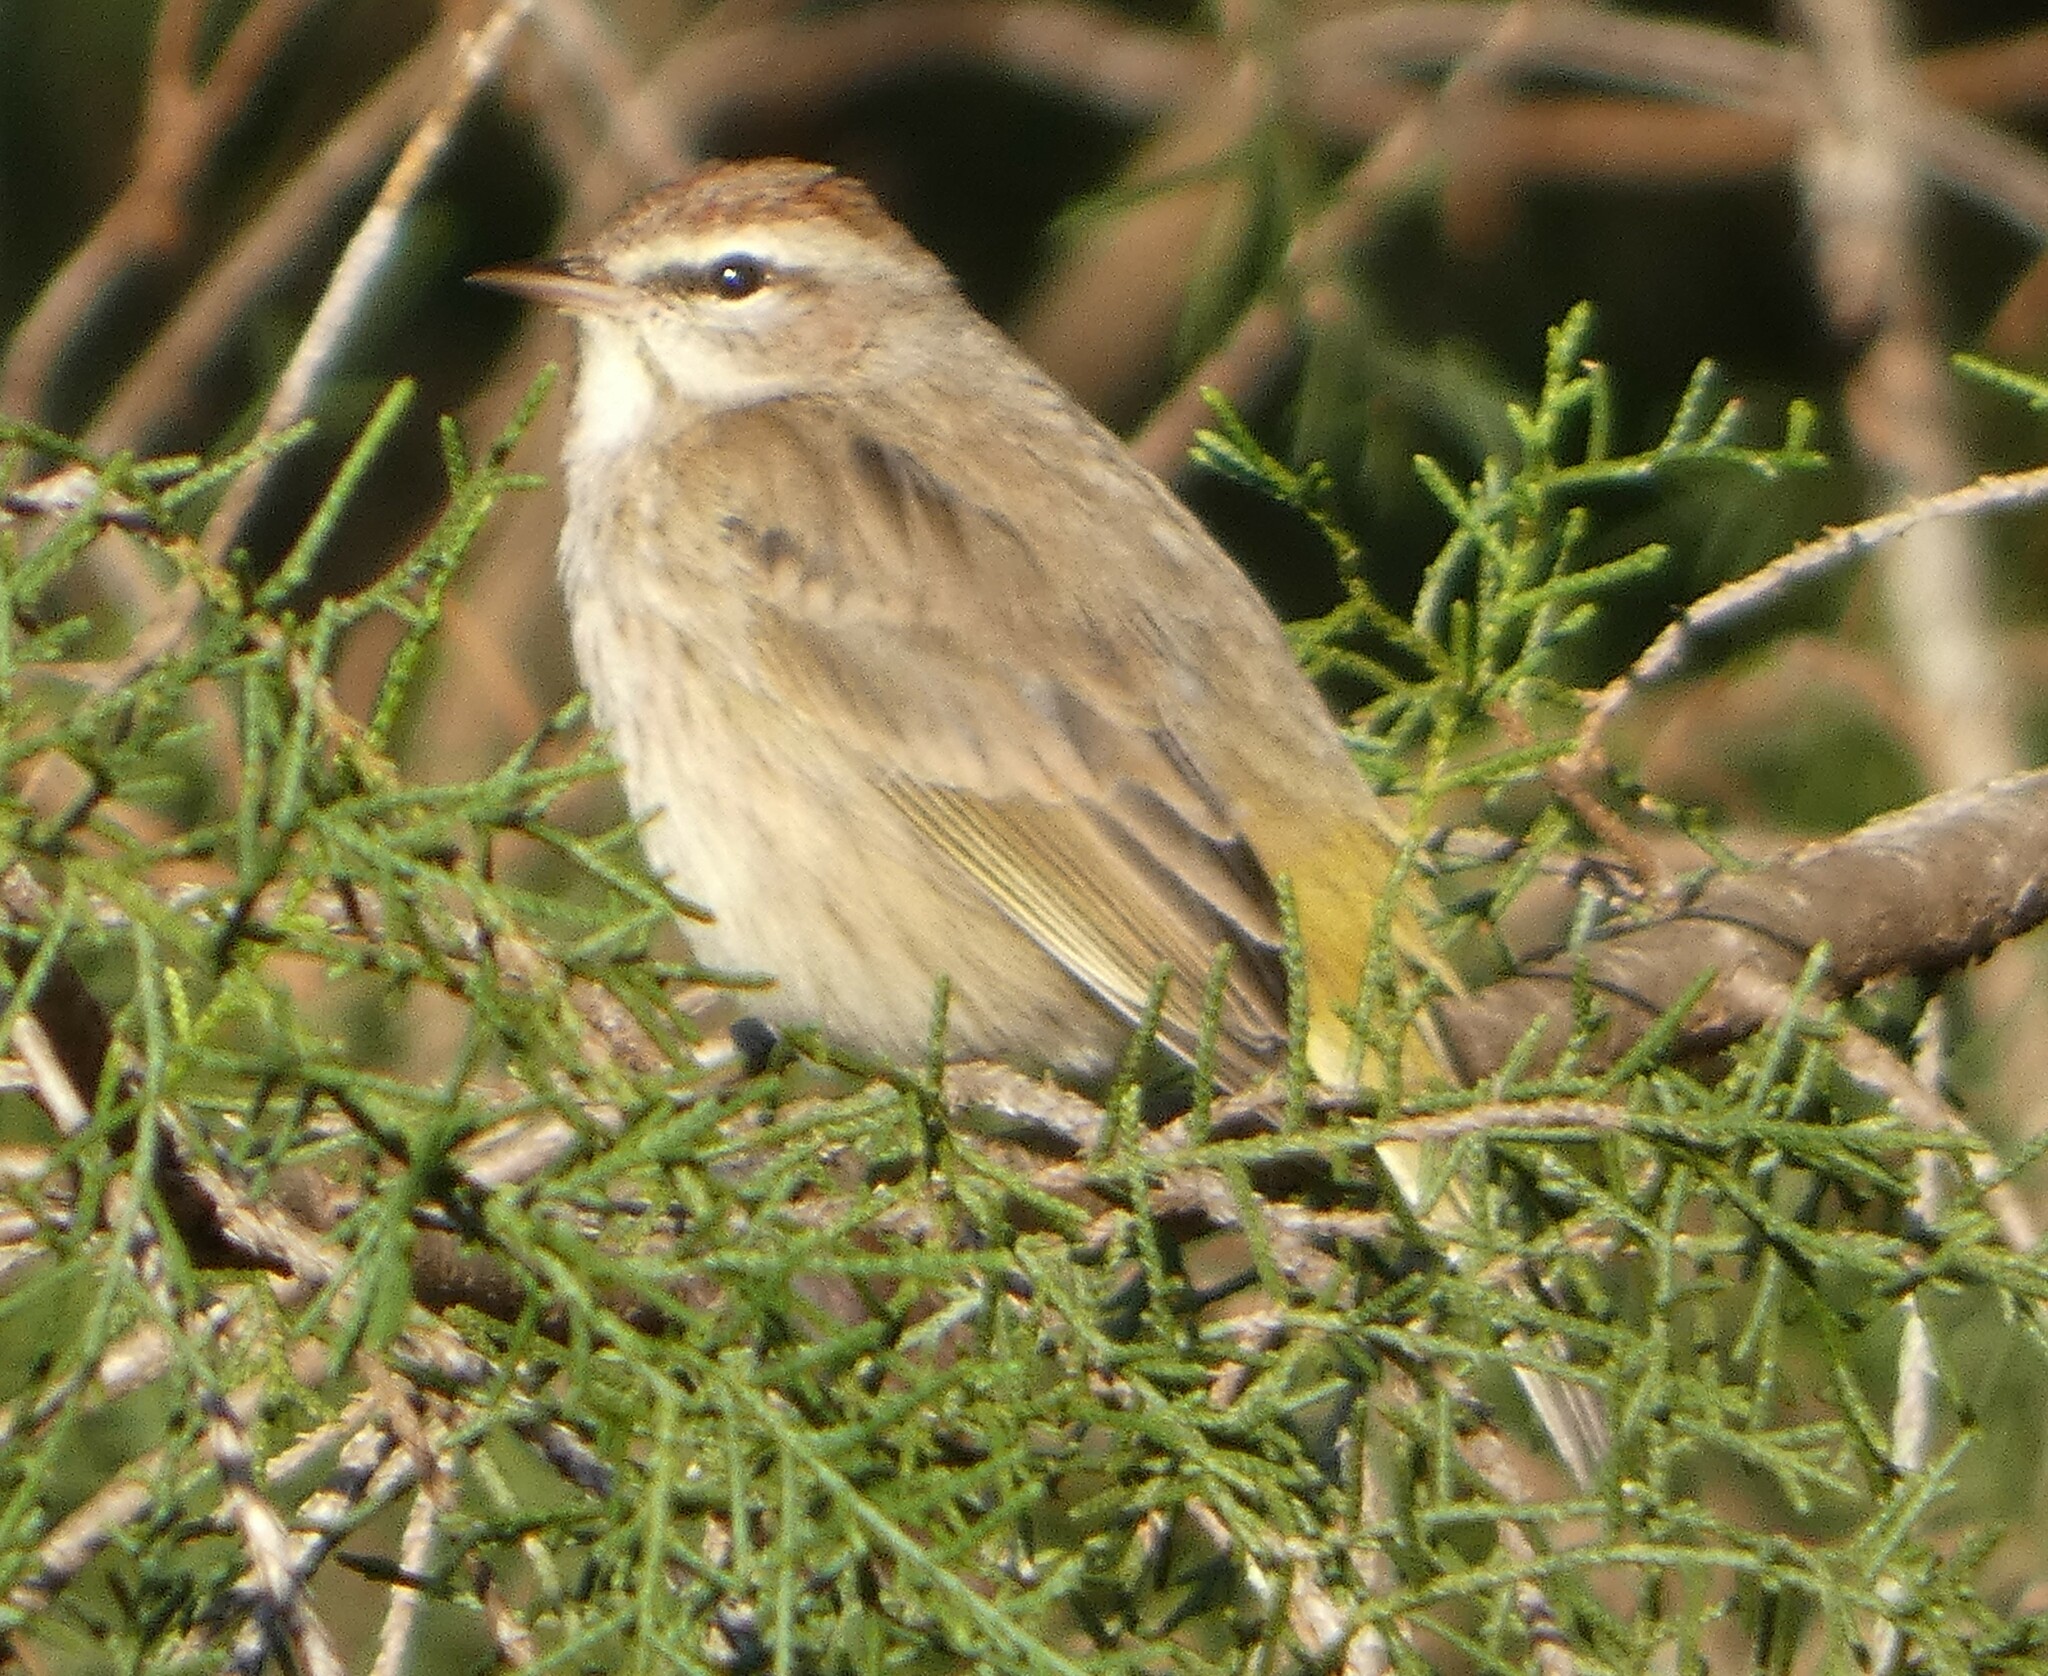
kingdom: Animalia
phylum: Chordata
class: Aves
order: Passeriformes
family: Parulidae
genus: Setophaga
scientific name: Setophaga palmarum
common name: Palm warbler
